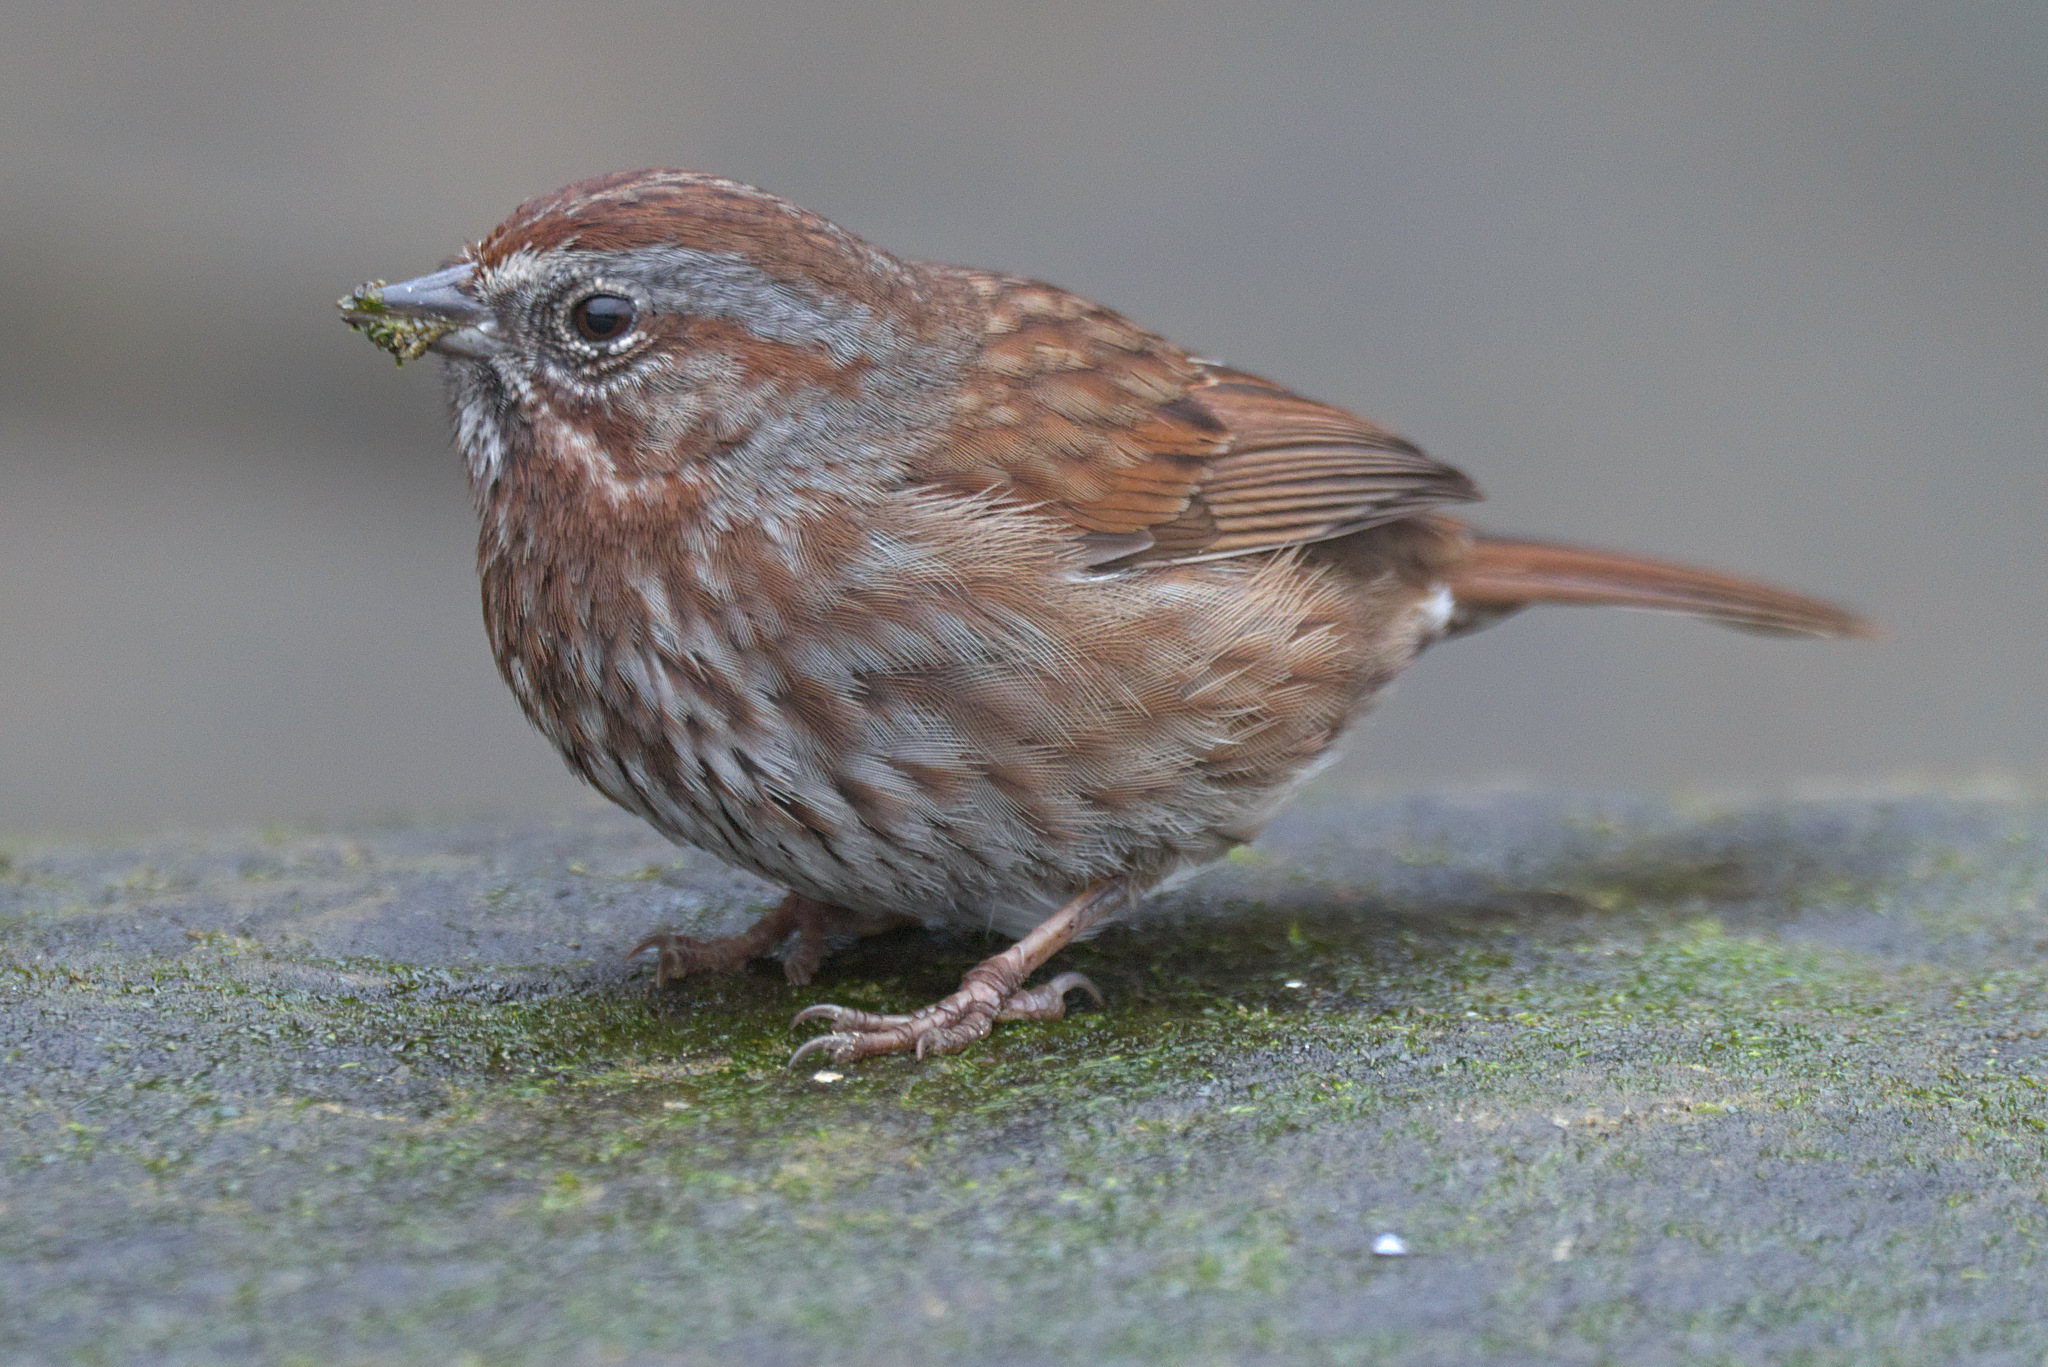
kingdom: Animalia
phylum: Chordata
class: Aves
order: Passeriformes
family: Passerellidae
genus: Melospiza
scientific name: Melospiza melodia
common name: Song sparrow
